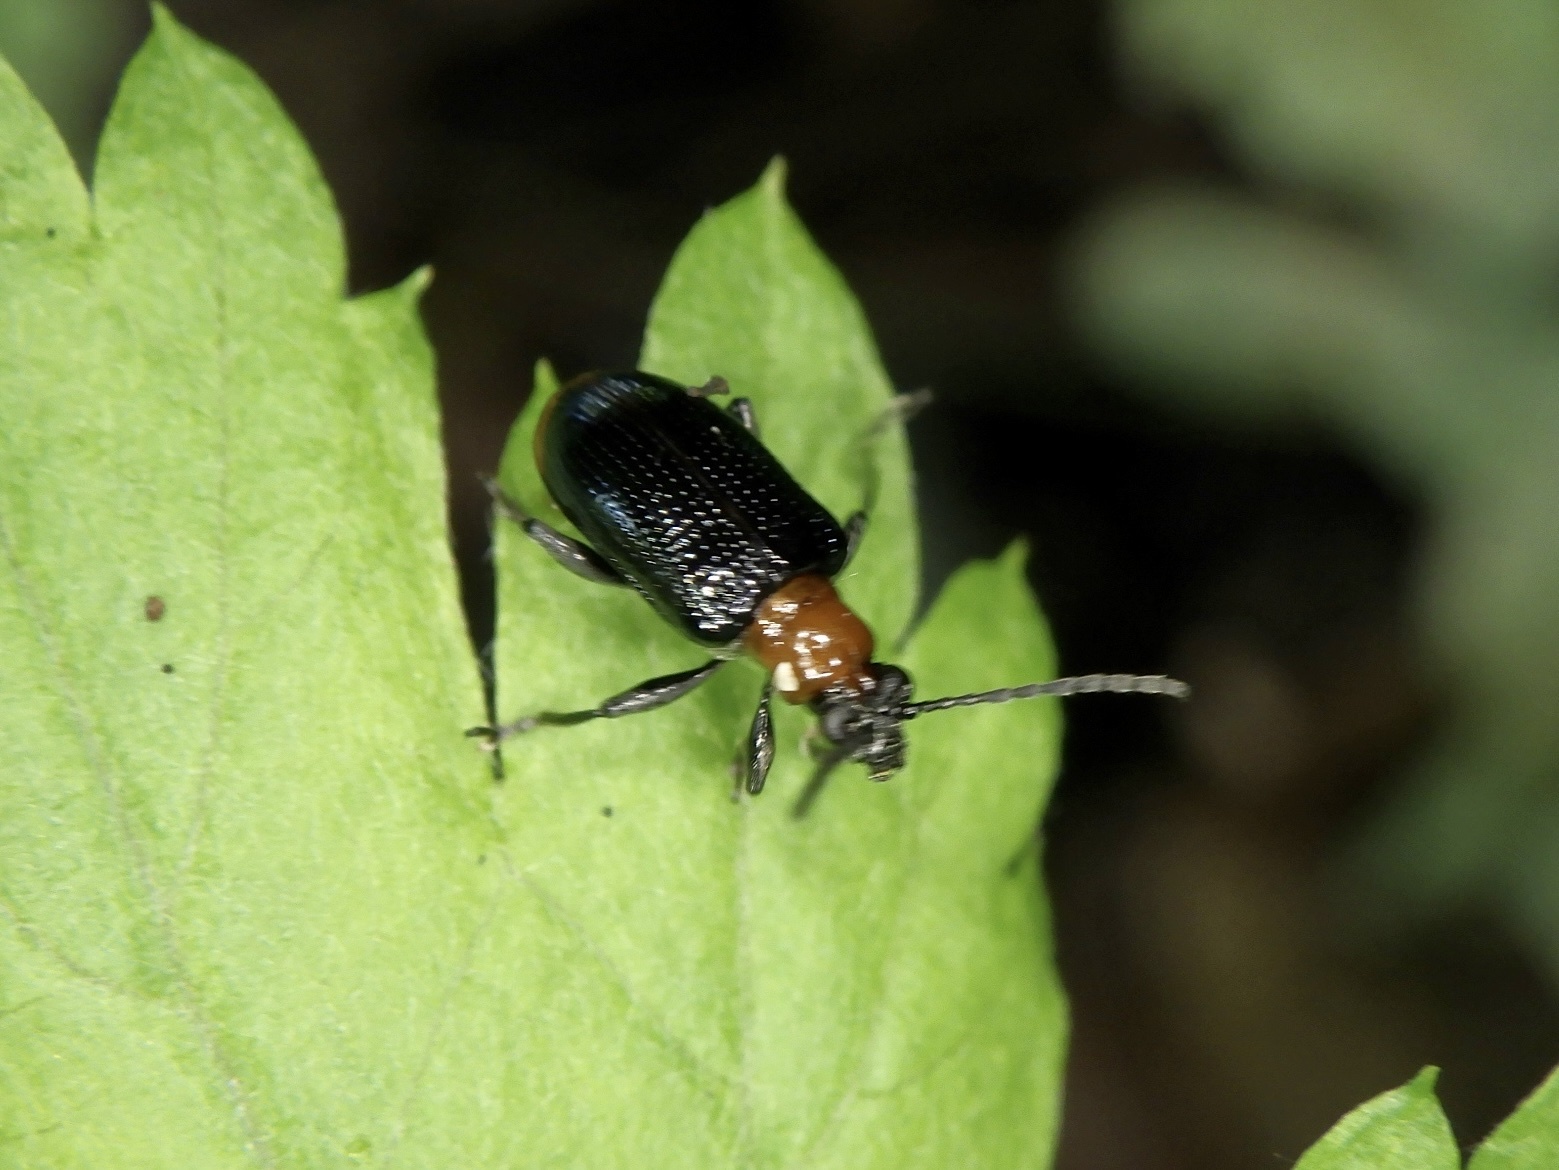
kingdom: Animalia
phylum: Arthropoda
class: Insecta
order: Coleoptera
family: Chrysomelidae
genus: Lema
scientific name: Lema diversa
